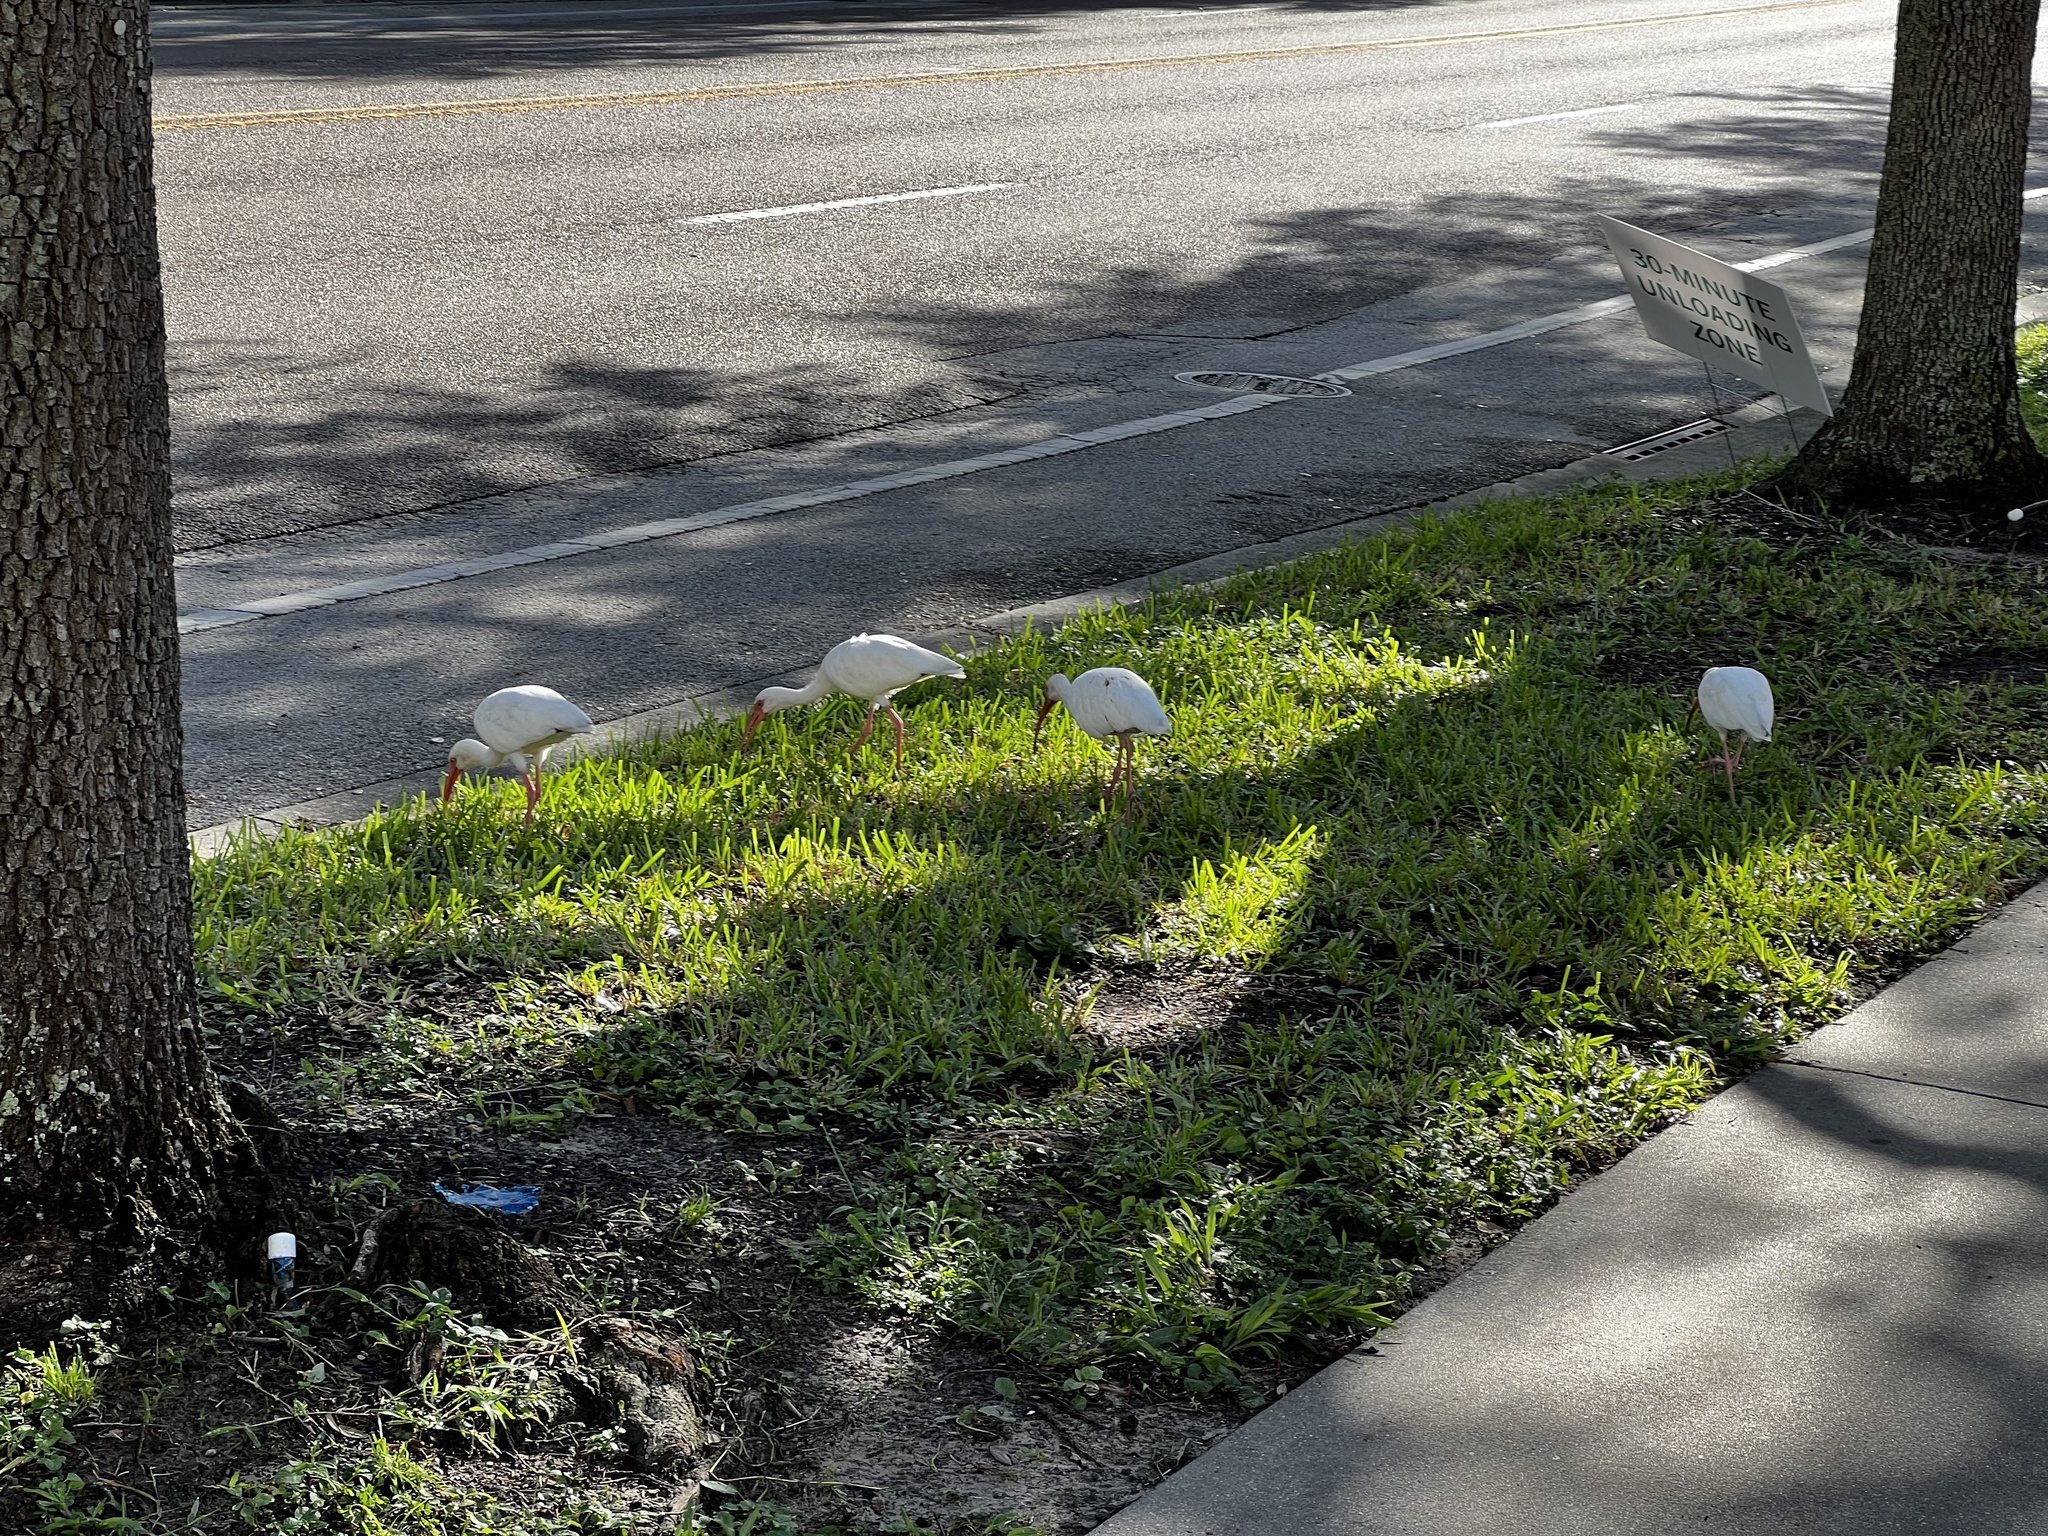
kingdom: Animalia
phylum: Chordata
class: Aves
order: Pelecaniformes
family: Threskiornithidae
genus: Eudocimus
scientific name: Eudocimus albus
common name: White ibis
